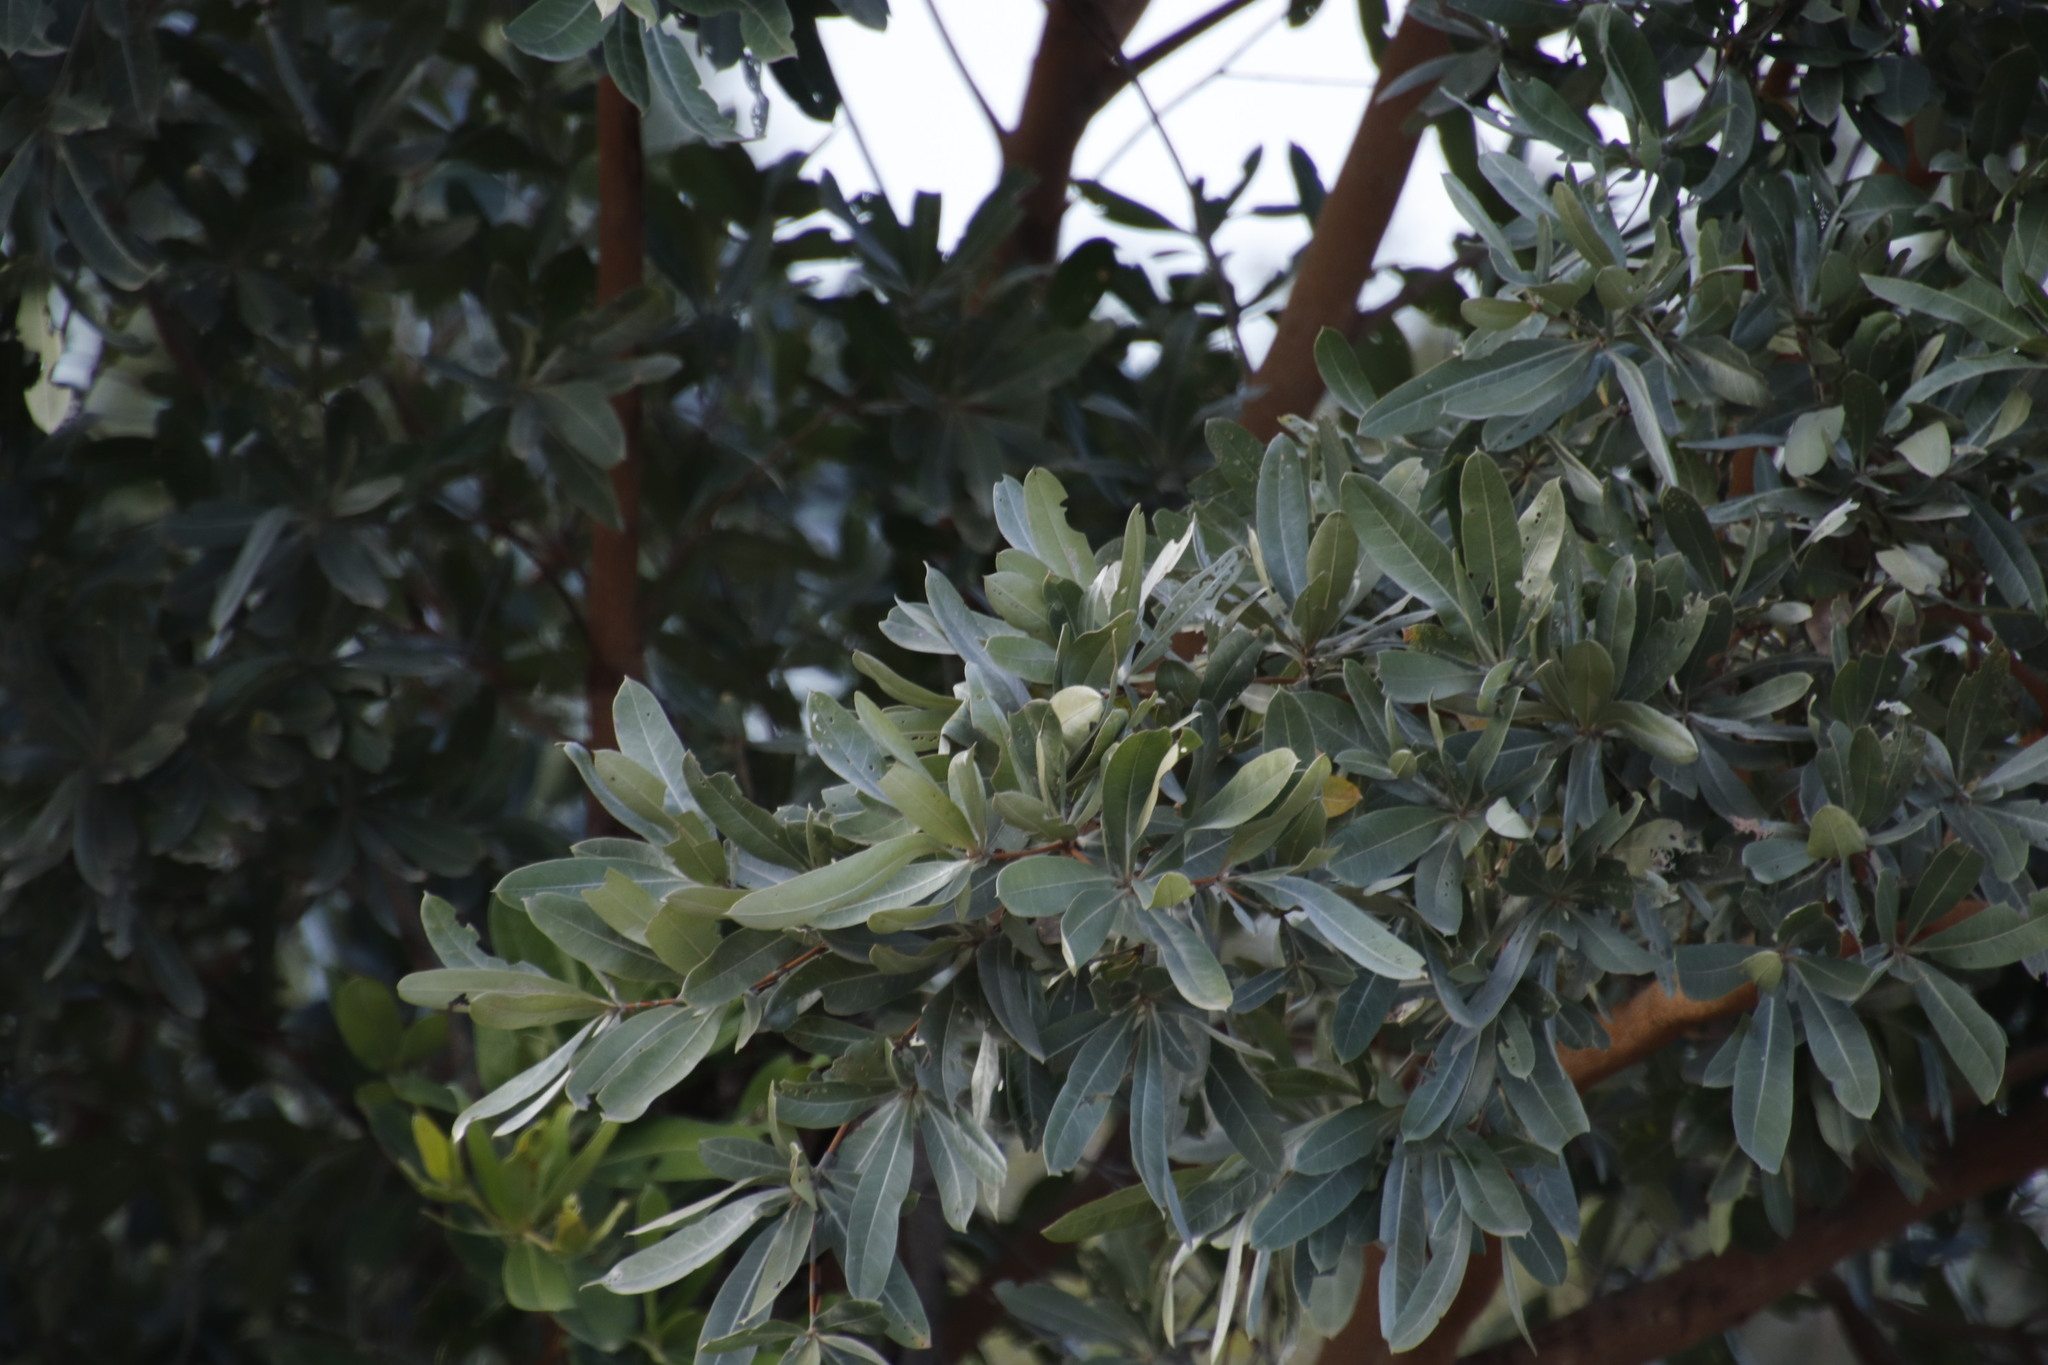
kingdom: Plantae
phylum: Tracheophyta
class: Magnoliopsida
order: Myrtales
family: Combretaceae
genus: Terminalia
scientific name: Terminalia sericea
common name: Clusterleaf
